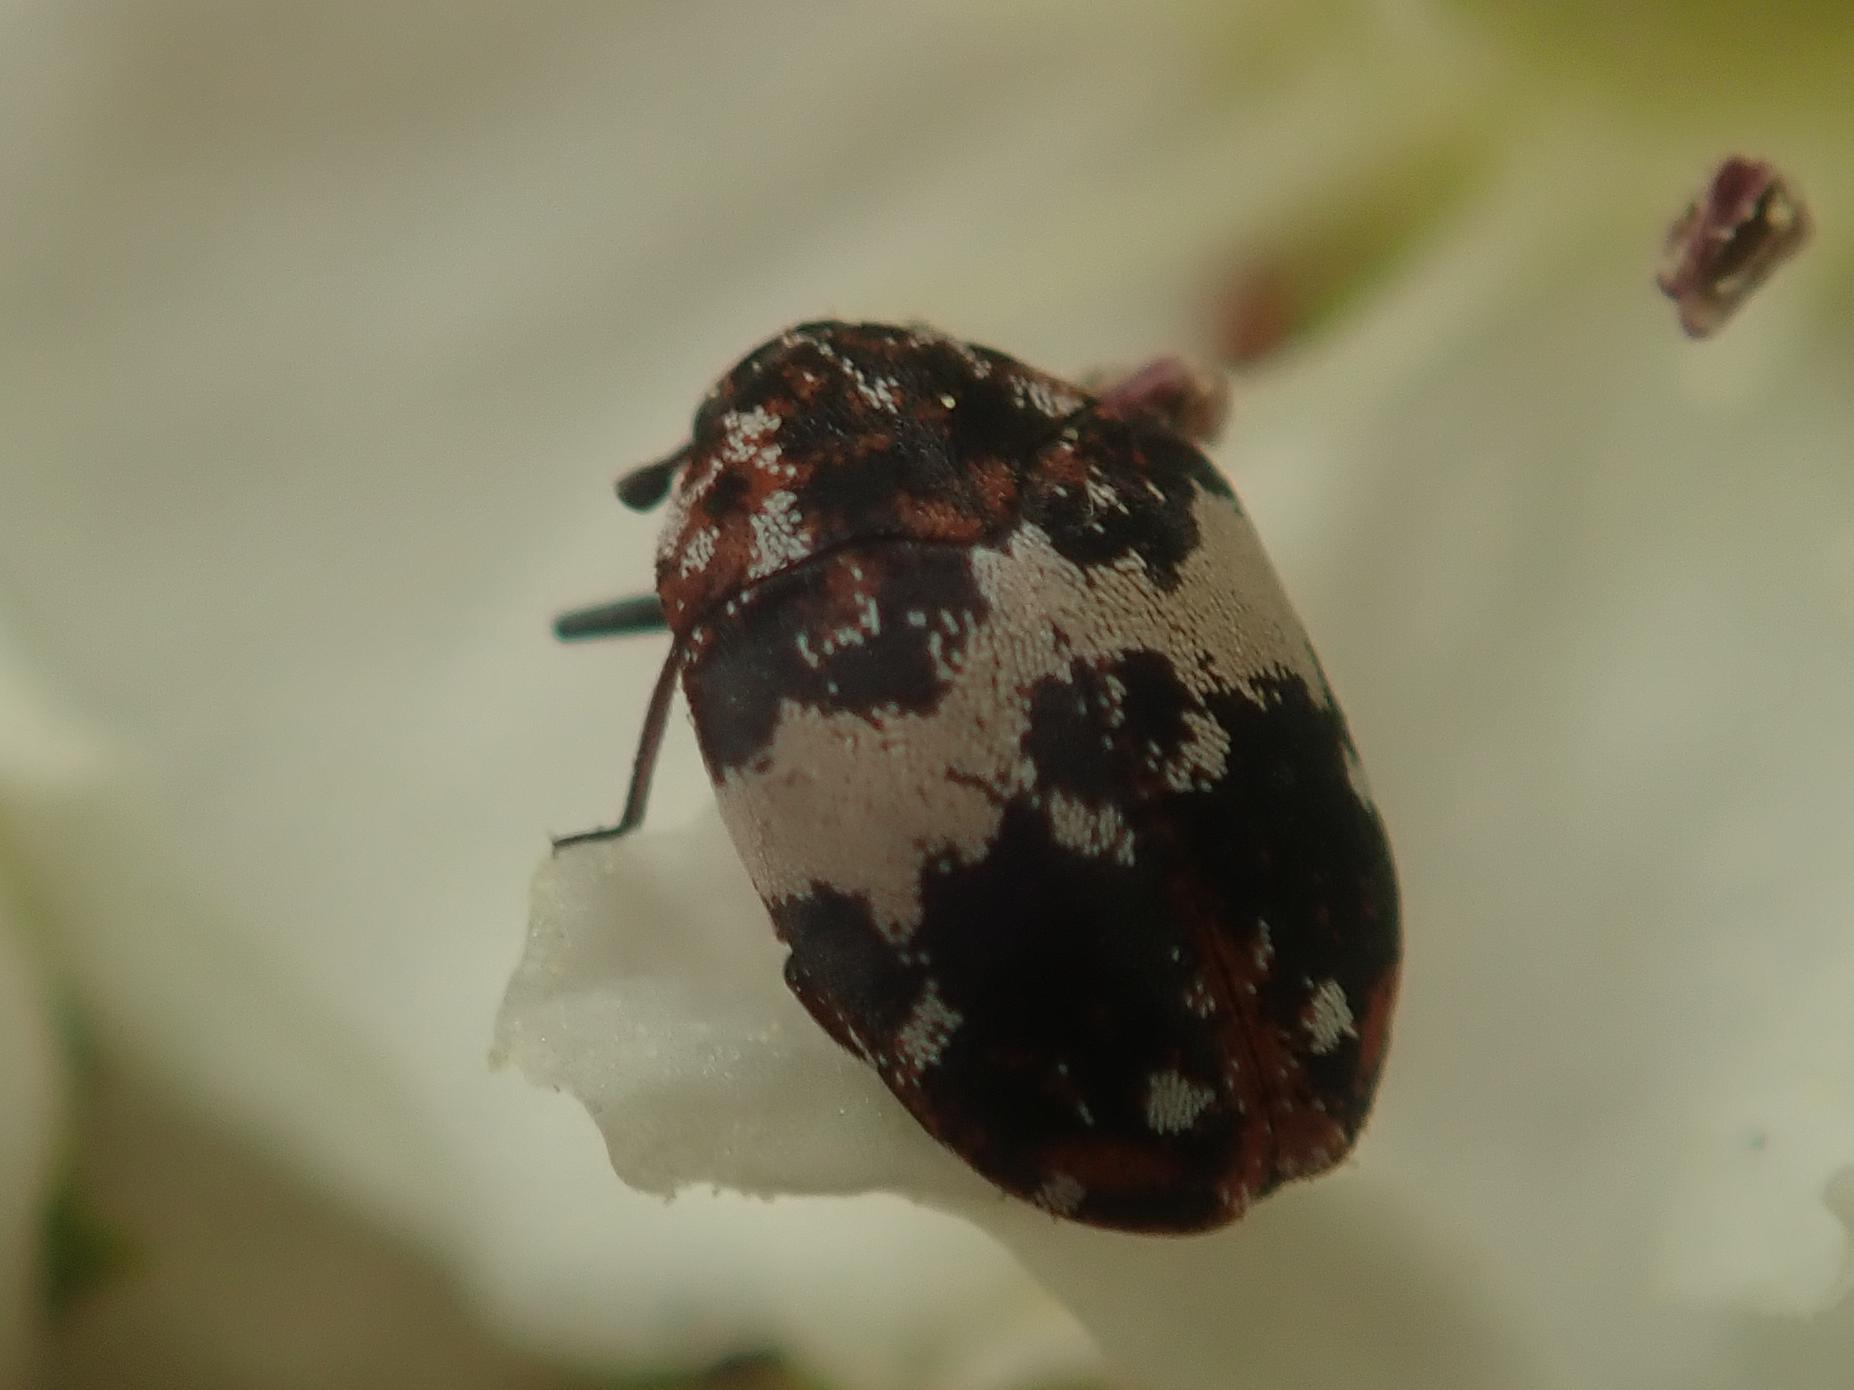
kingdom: Animalia
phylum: Arthropoda
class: Insecta
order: Coleoptera
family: Dermestidae
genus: Anthrenus
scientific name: Anthrenus pimpinellae
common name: Dermestid beetle
